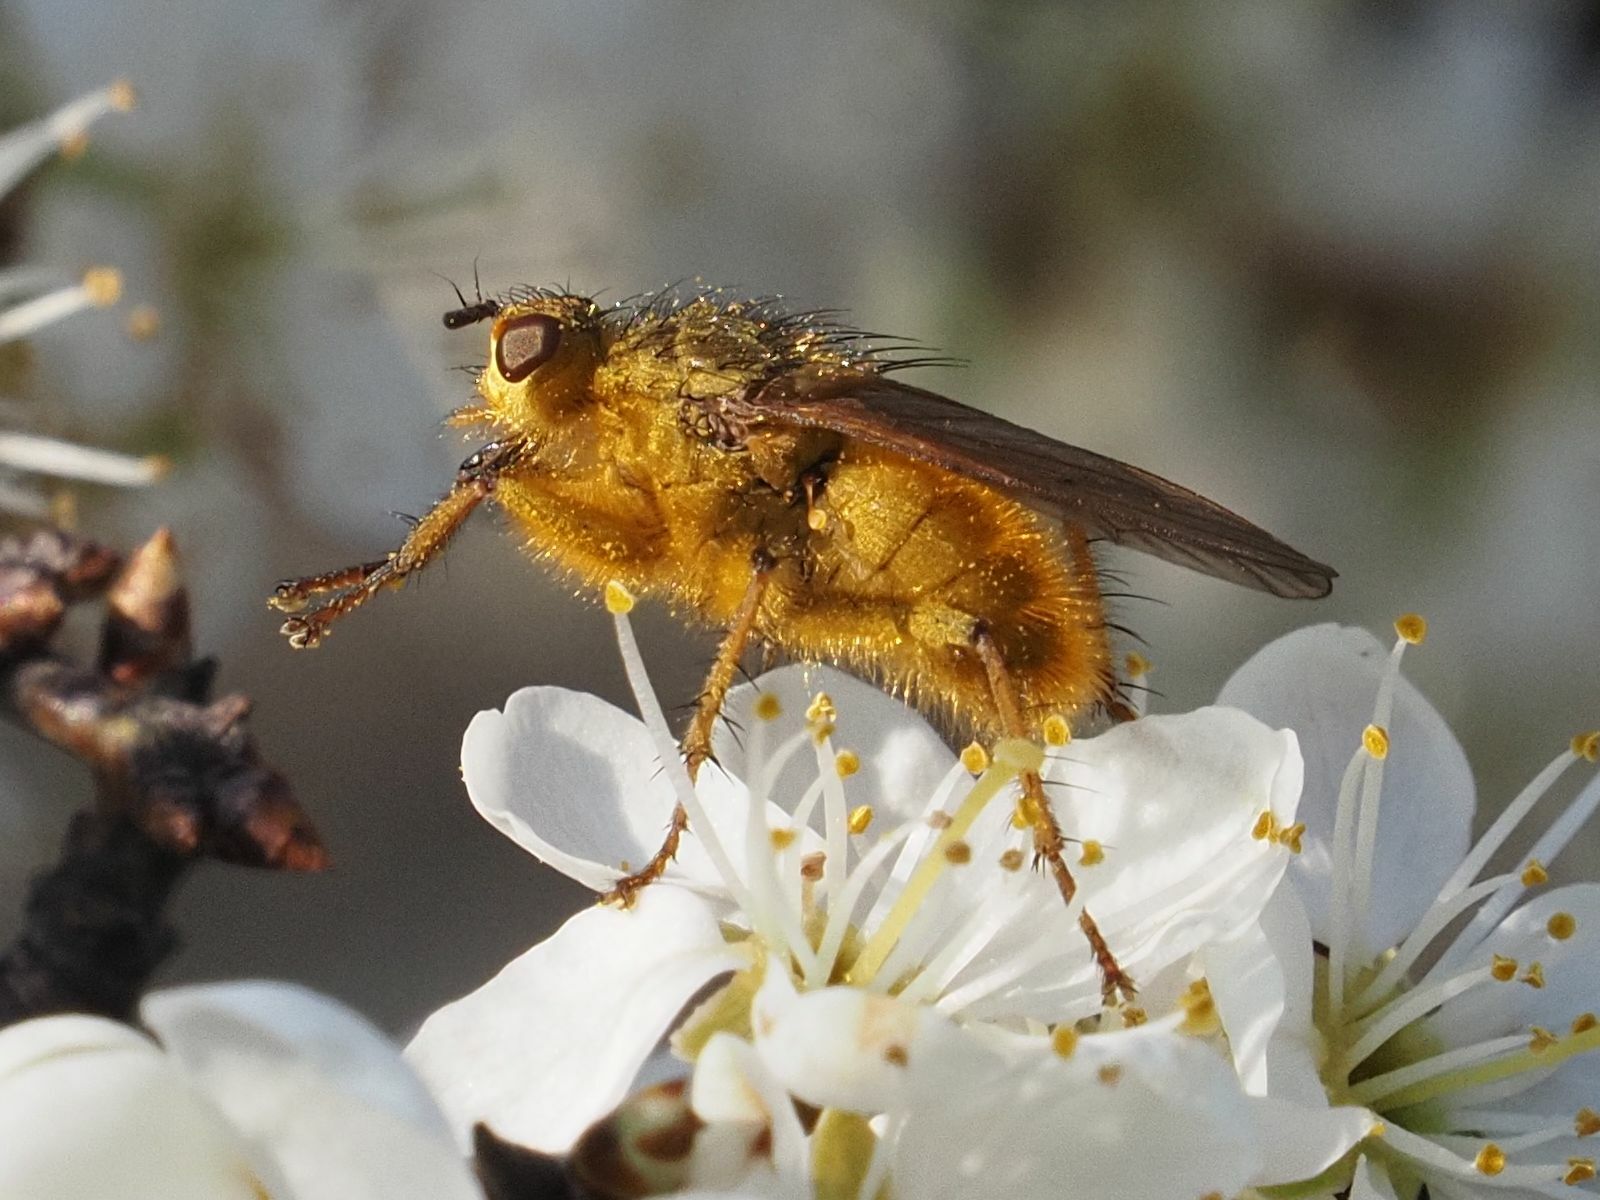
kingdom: Animalia
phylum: Arthropoda
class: Insecta
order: Diptera
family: Scathophagidae
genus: Scathophaga
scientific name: Scathophaga stercoraria
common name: Yellow dung fly
